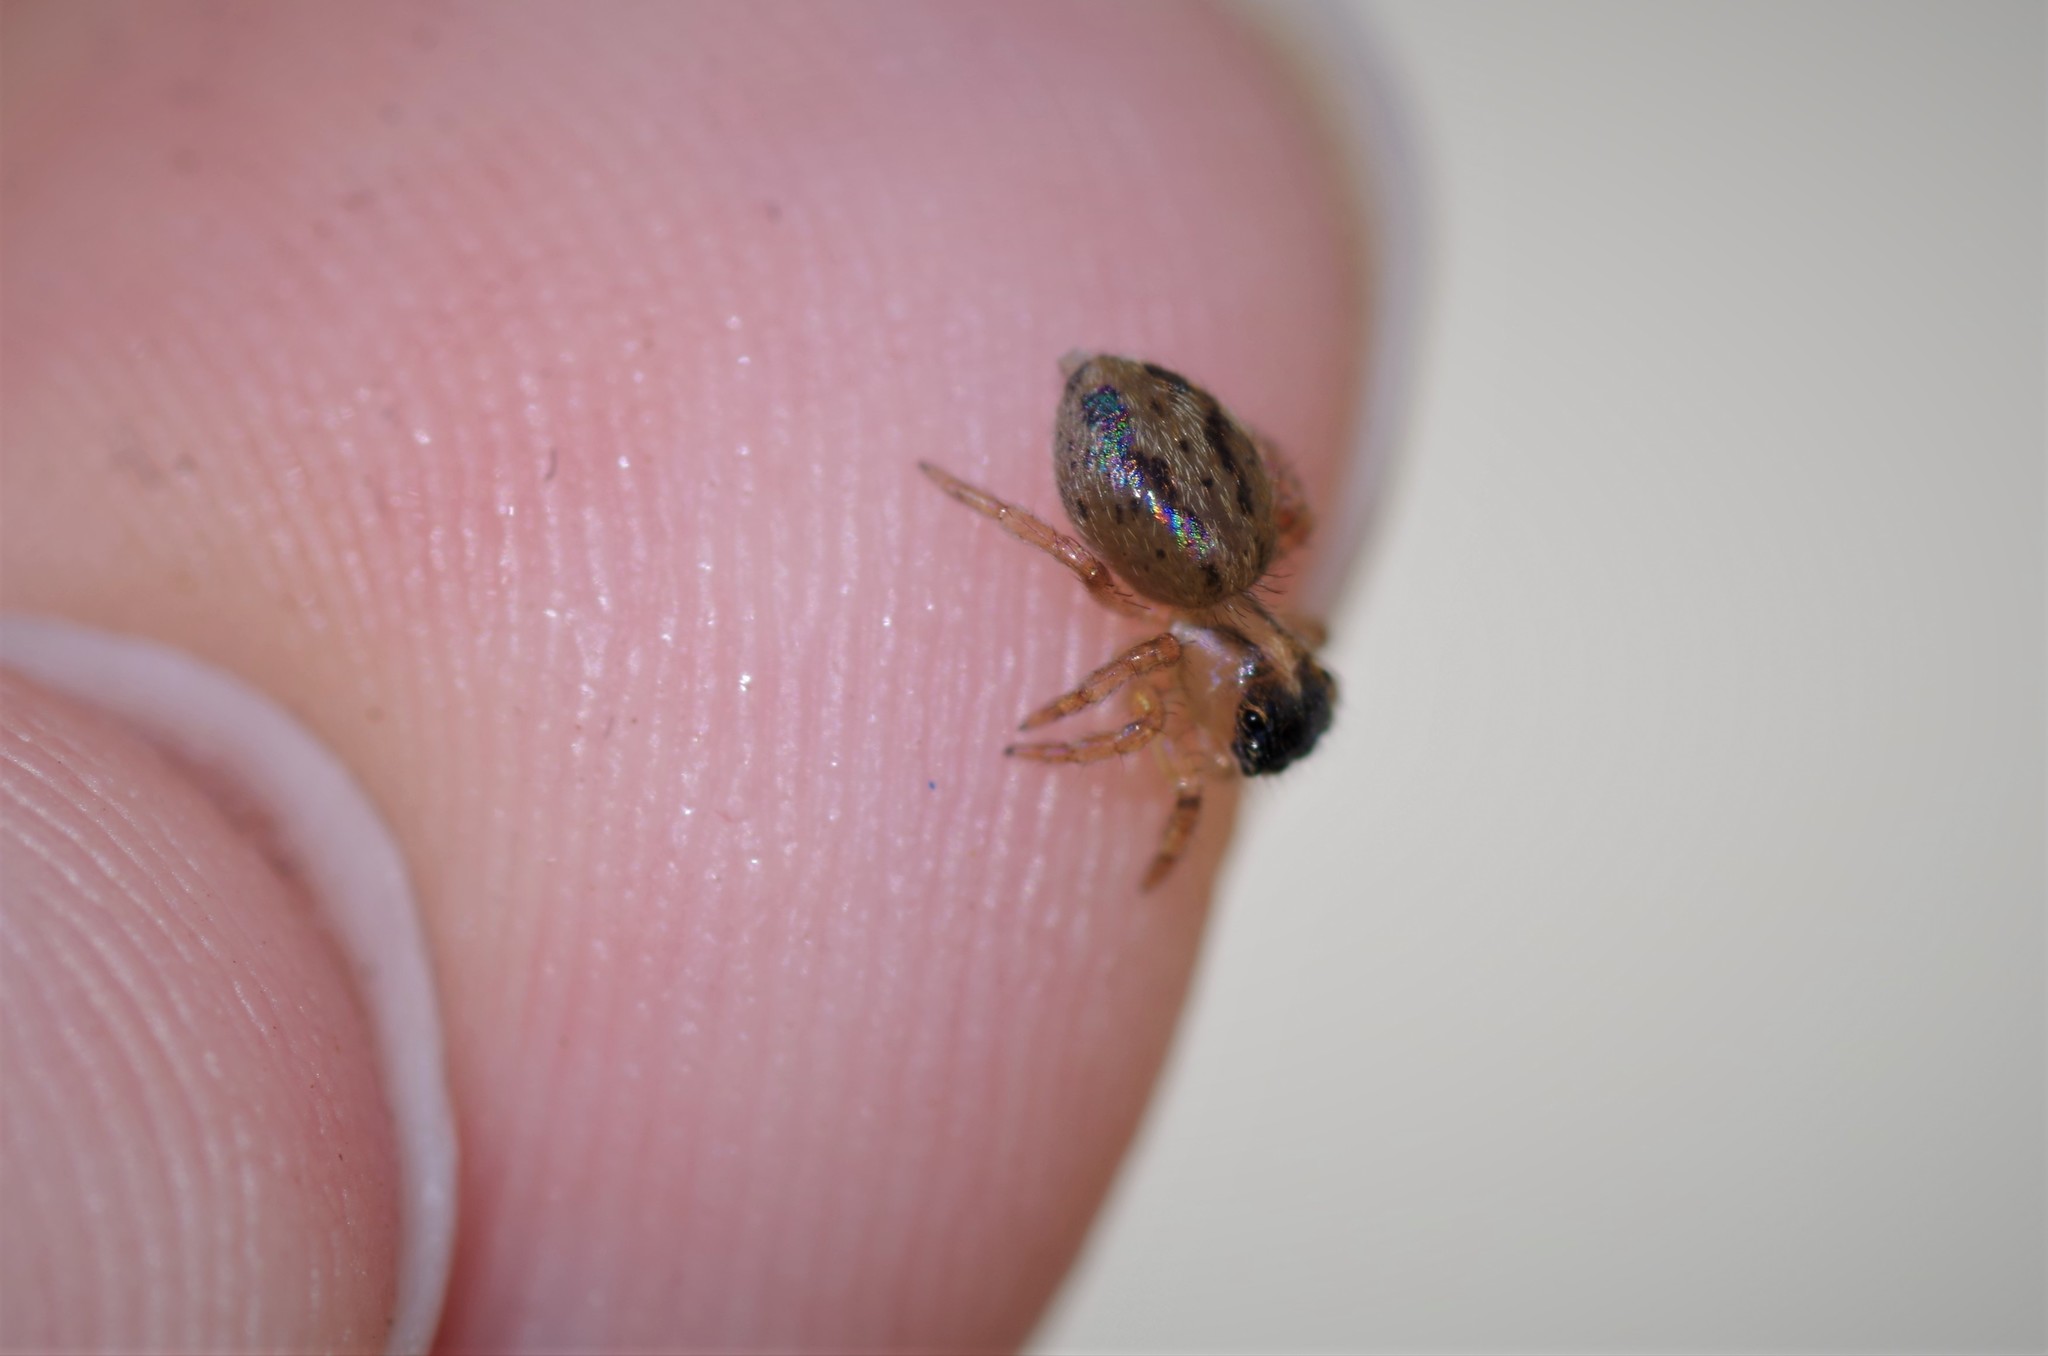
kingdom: Animalia
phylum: Arthropoda
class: Arachnida
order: Araneae
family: Salticidae
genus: Saitis
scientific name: Saitis barbipes
